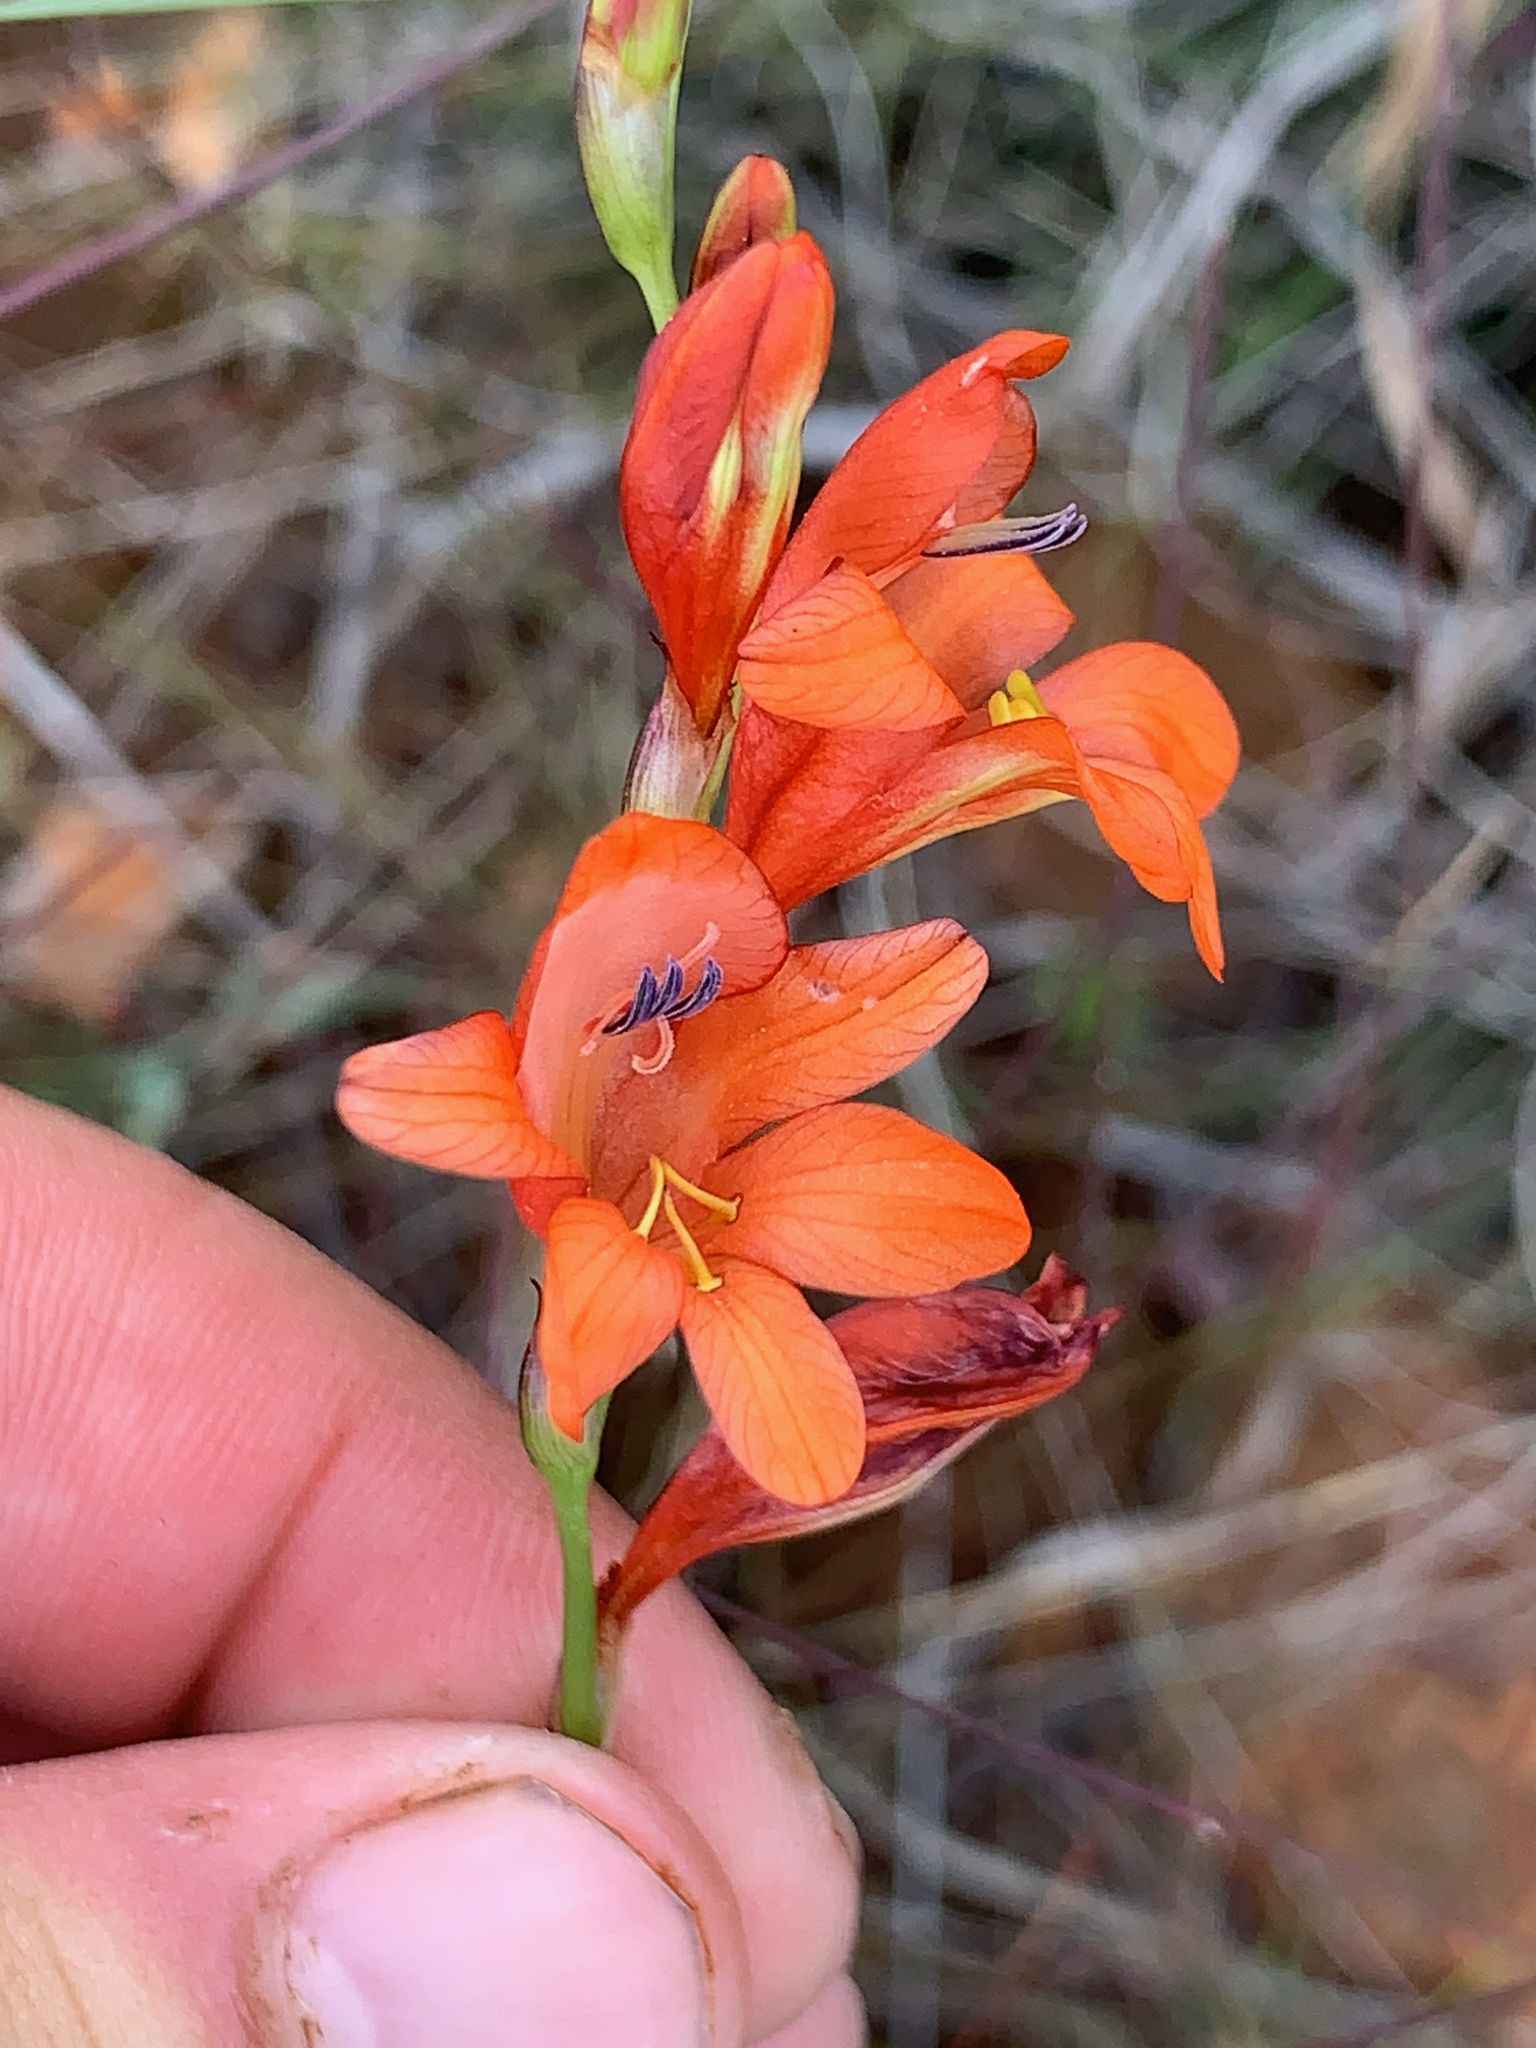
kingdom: Plantae
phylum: Tracheophyta
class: Liliopsida
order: Asparagales
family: Iridaceae
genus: Tritonia
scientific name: Tritonia nelsonii
